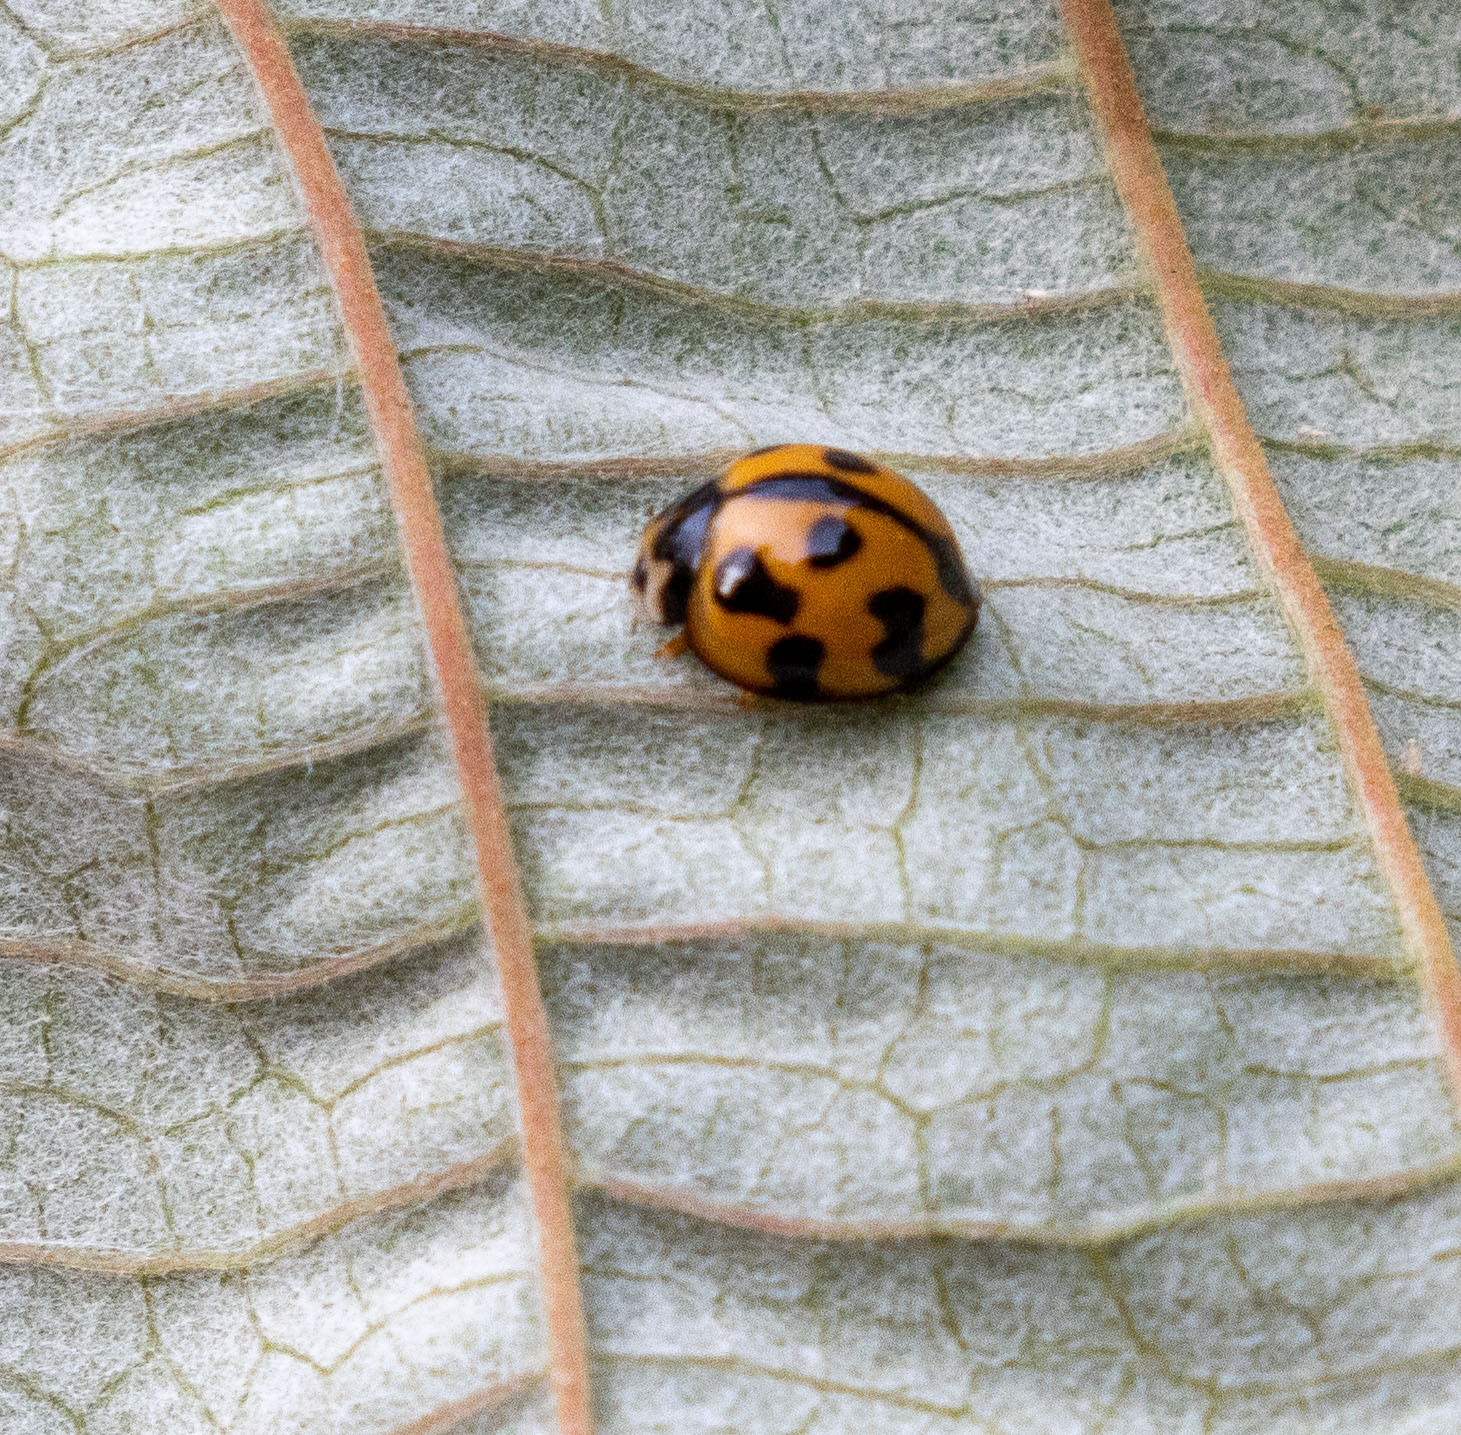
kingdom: Animalia
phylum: Arthropoda
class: Insecta
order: Coleoptera
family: Coccinellidae
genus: Coelophora
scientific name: Coelophora inaequalis
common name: Common australian lady beetle
